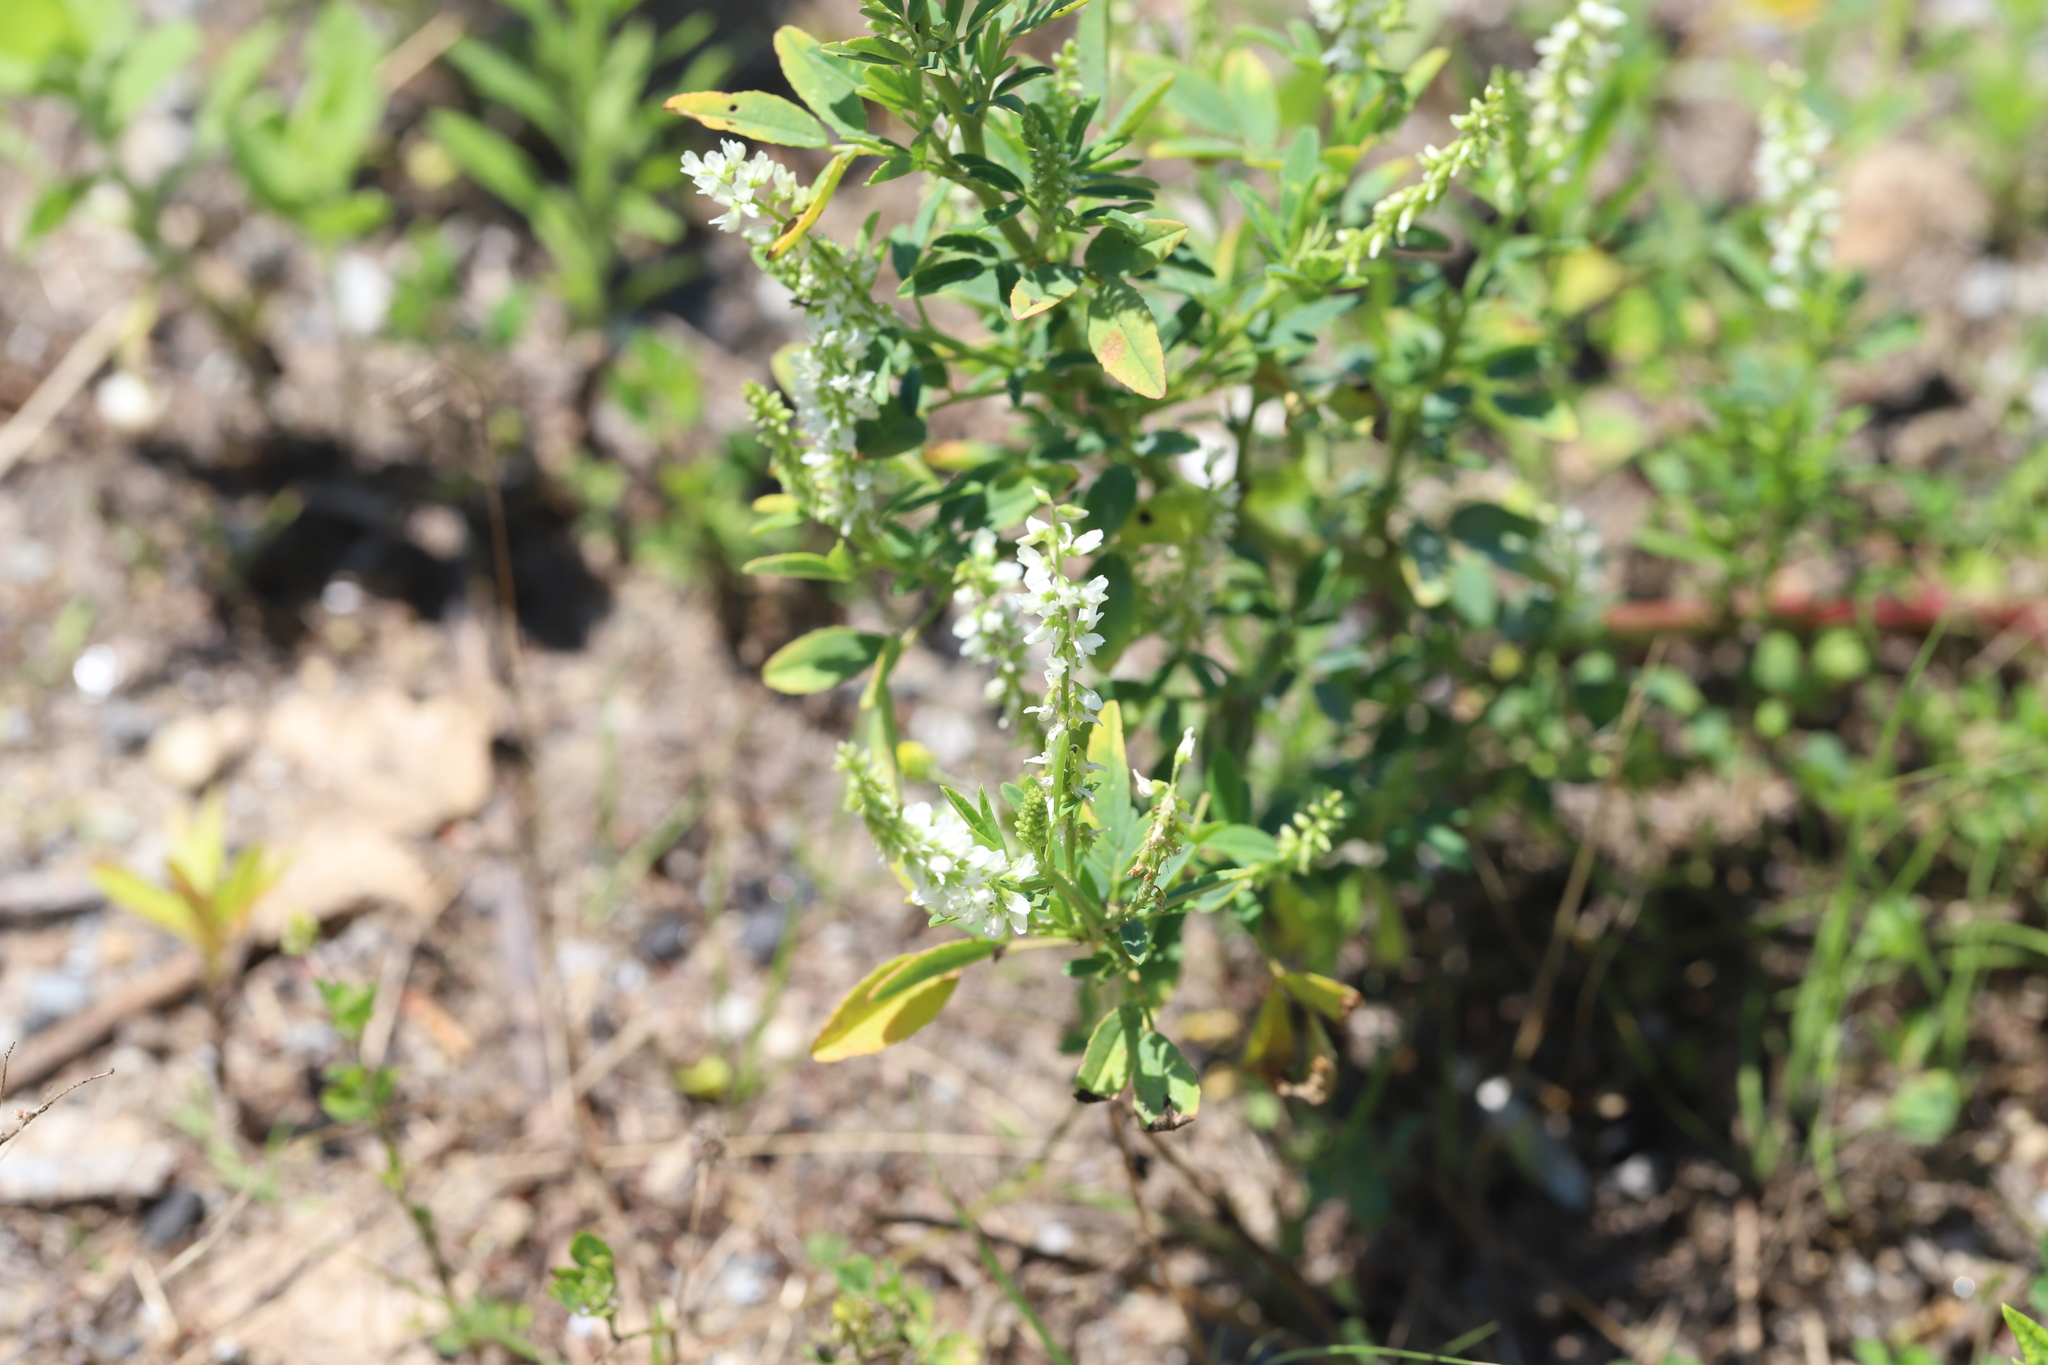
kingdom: Plantae
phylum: Tracheophyta
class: Magnoliopsida
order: Fabales
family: Fabaceae
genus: Melilotus
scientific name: Melilotus albus
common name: White melilot
